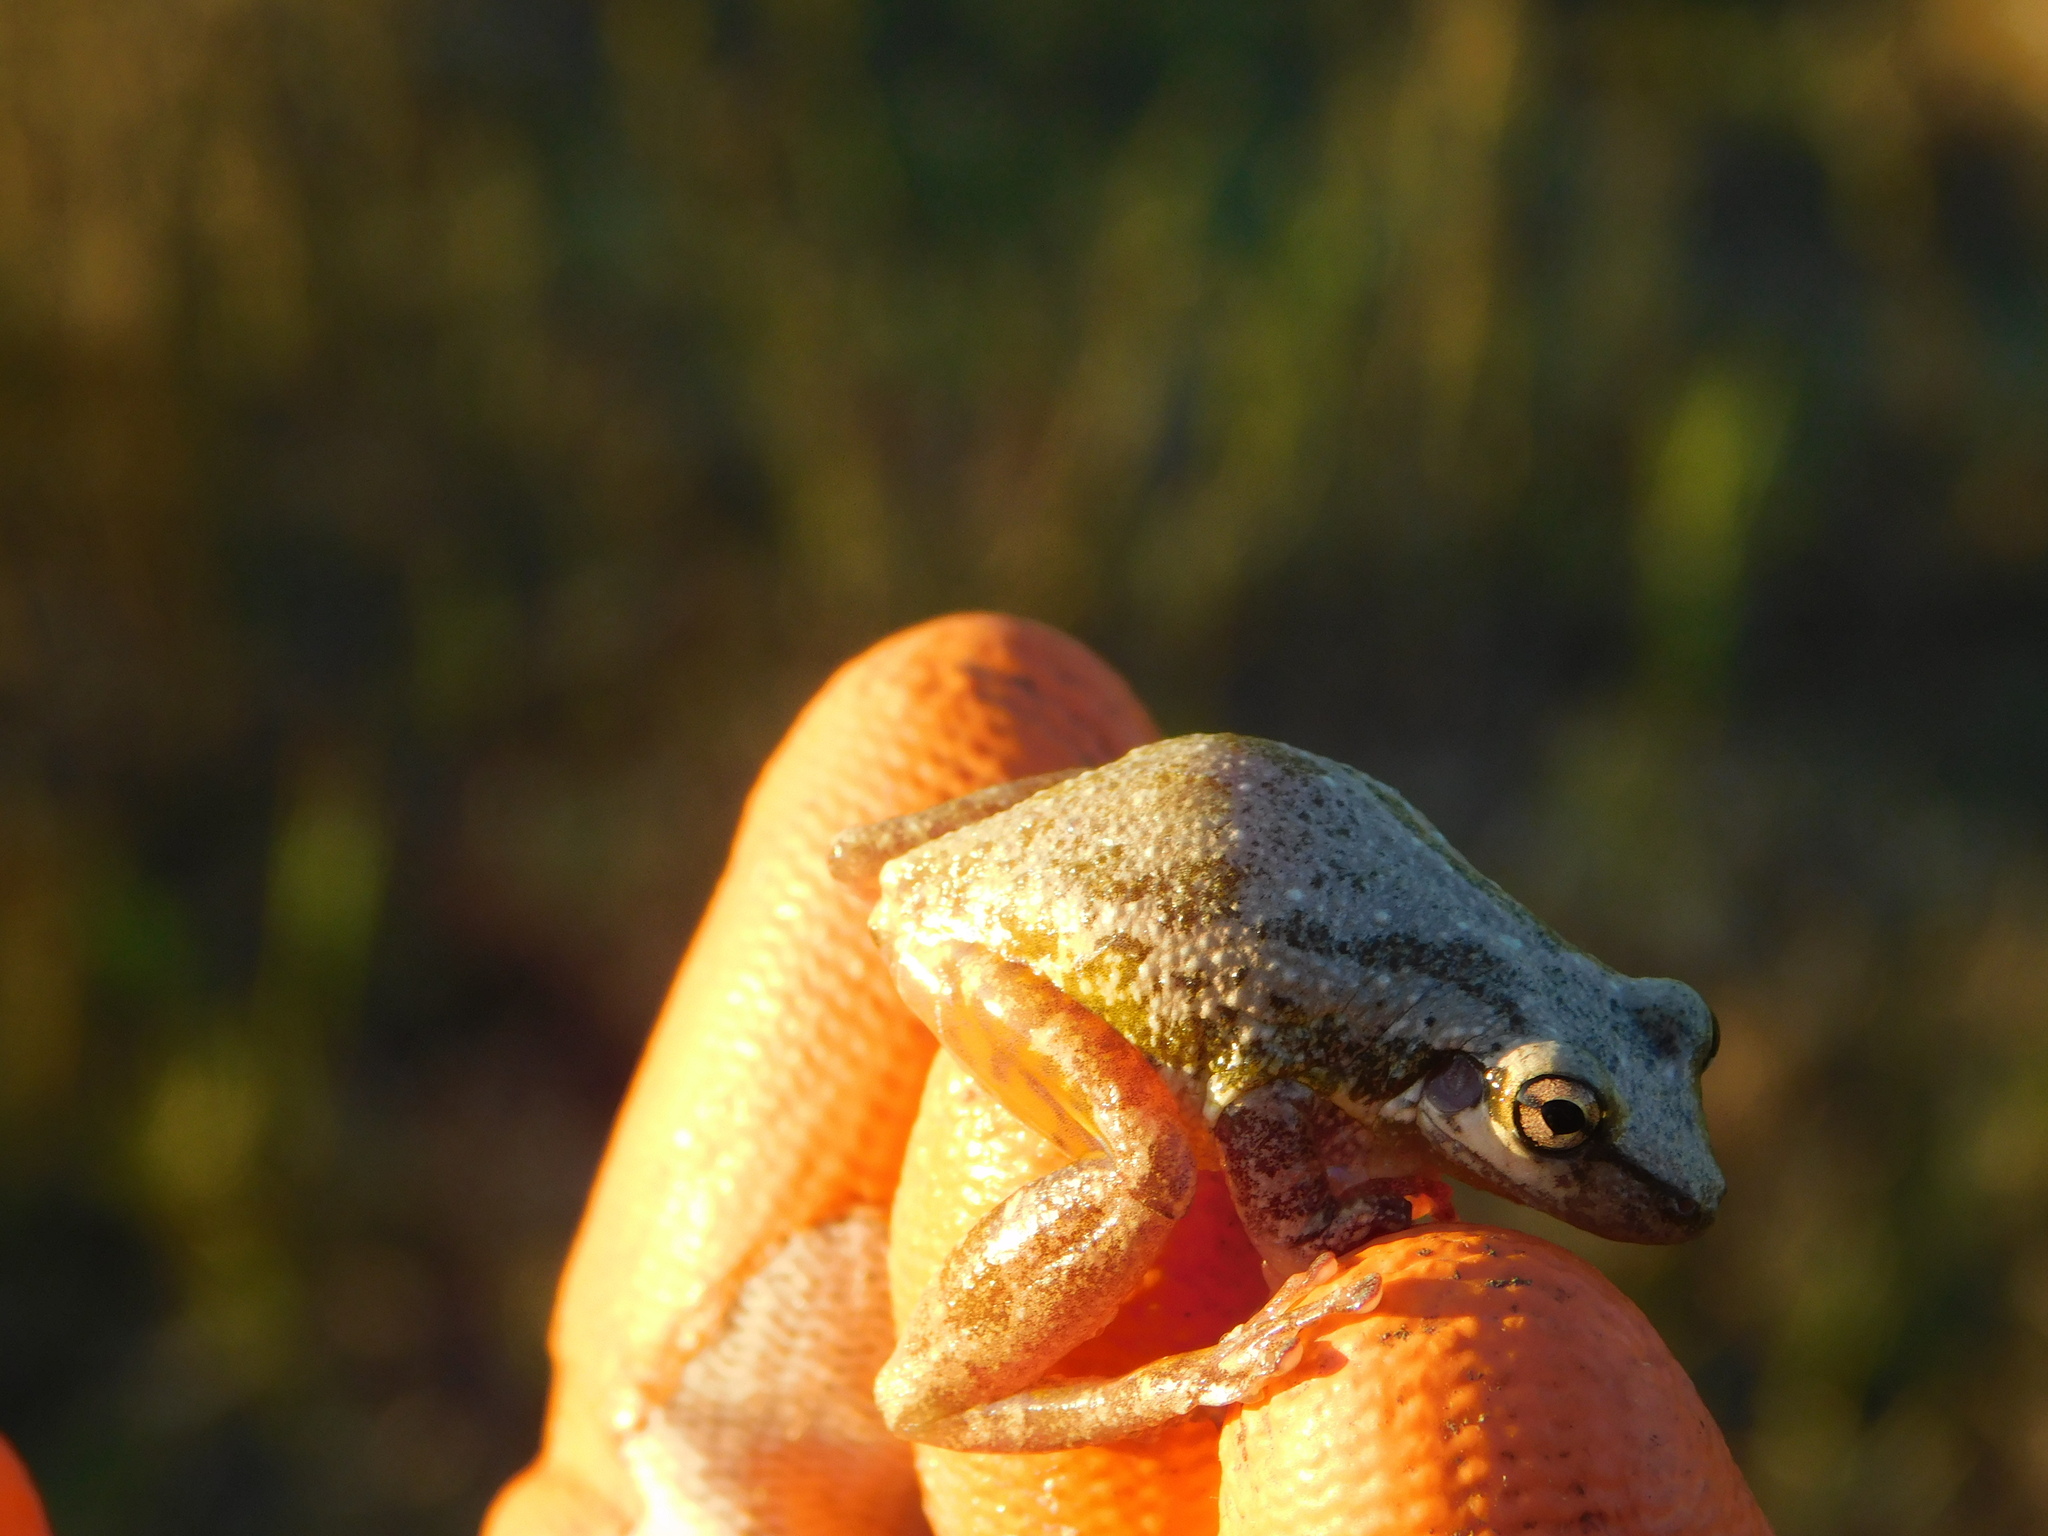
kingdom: Animalia
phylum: Chordata
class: Amphibia
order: Anura
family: Hylidae
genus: Scinax
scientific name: Scinax fuscovarius
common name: Fuscous-blotched treefrog
